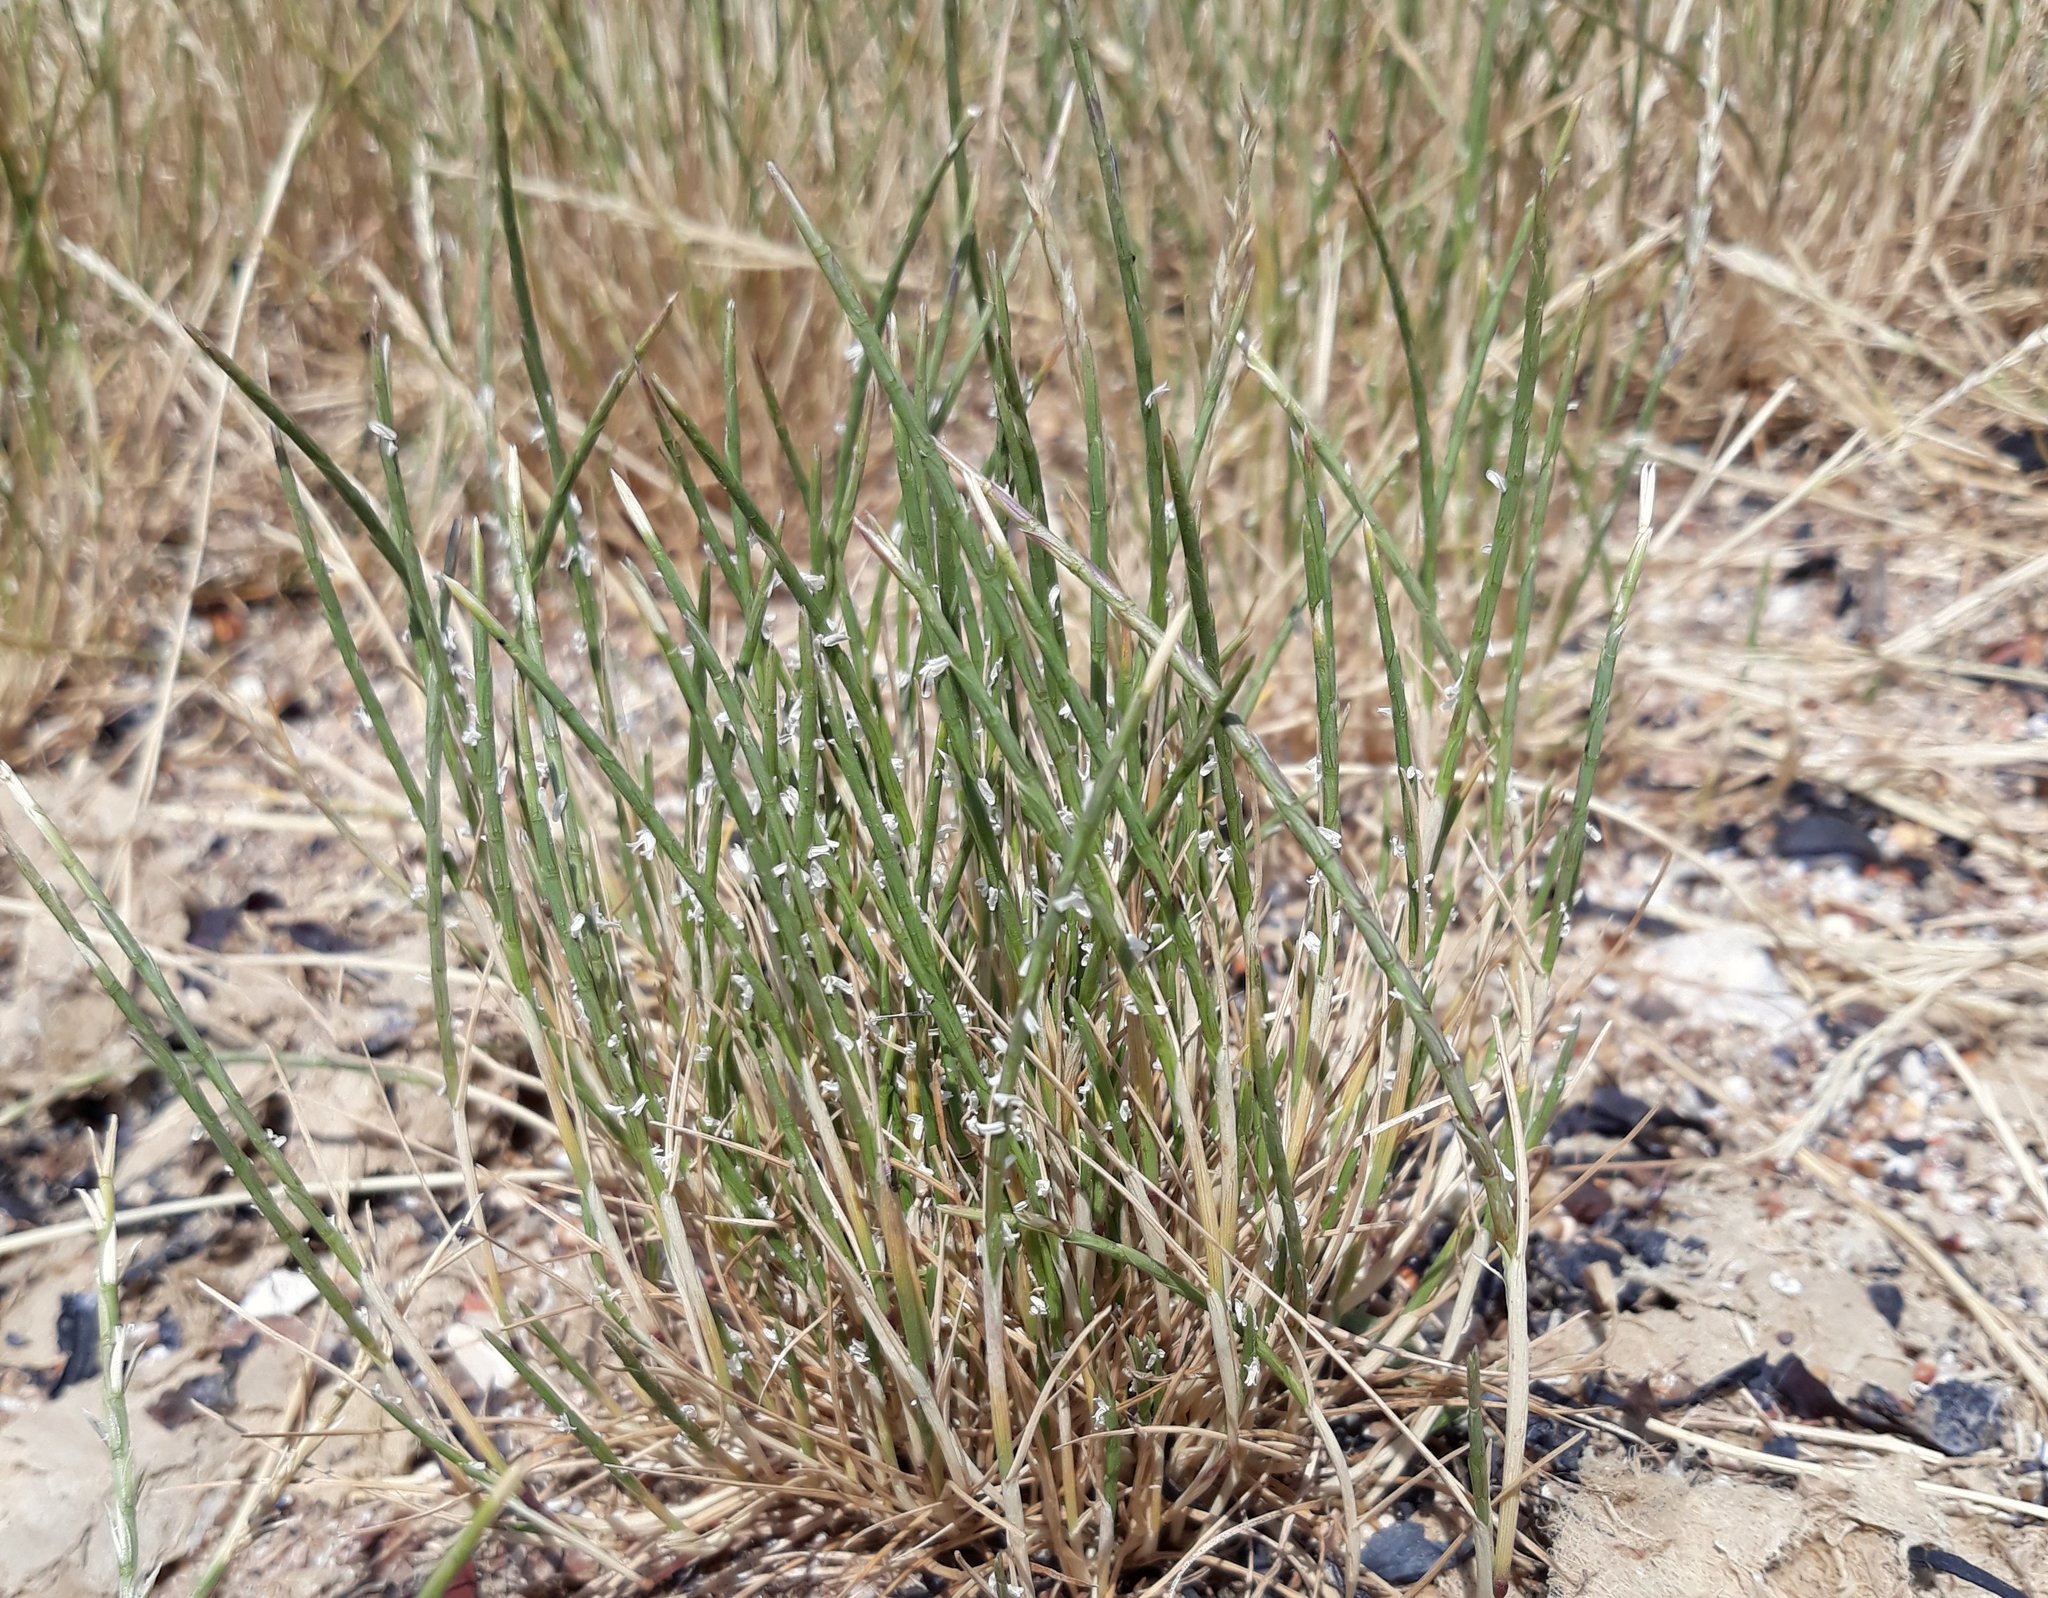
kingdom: Plantae
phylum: Tracheophyta
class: Liliopsida
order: Poales
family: Poaceae
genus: Parapholis
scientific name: Parapholis strigosa
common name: Hard-grass
